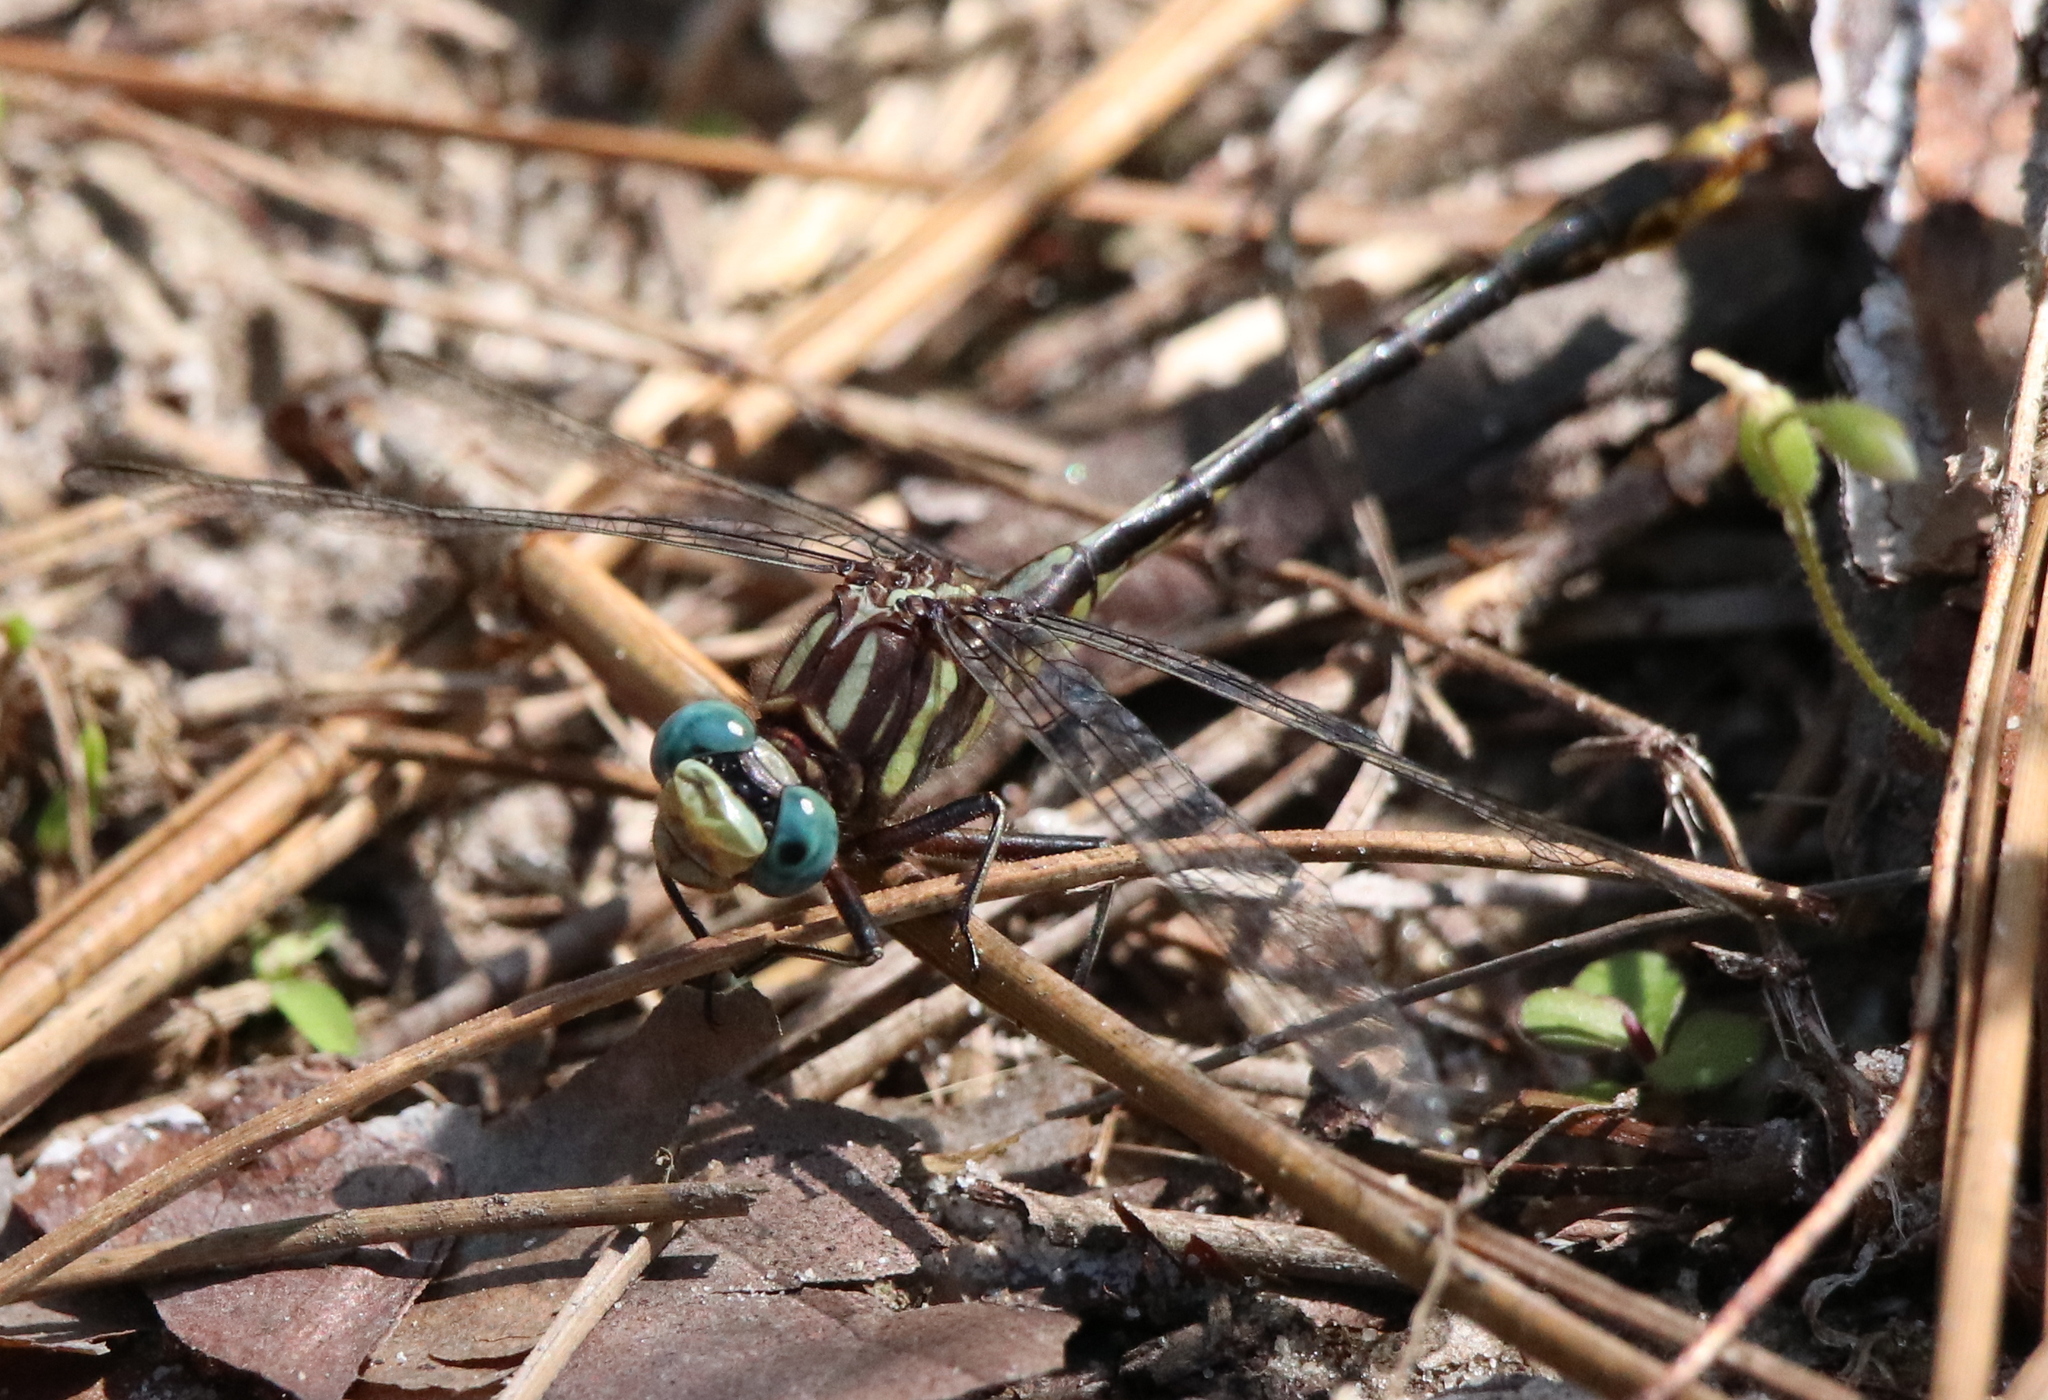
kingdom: Animalia
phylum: Arthropoda
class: Insecta
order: Odonata
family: Gomphidae
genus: Phanogomphus
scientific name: Phanogomphus exilis
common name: Lancet clubtail
